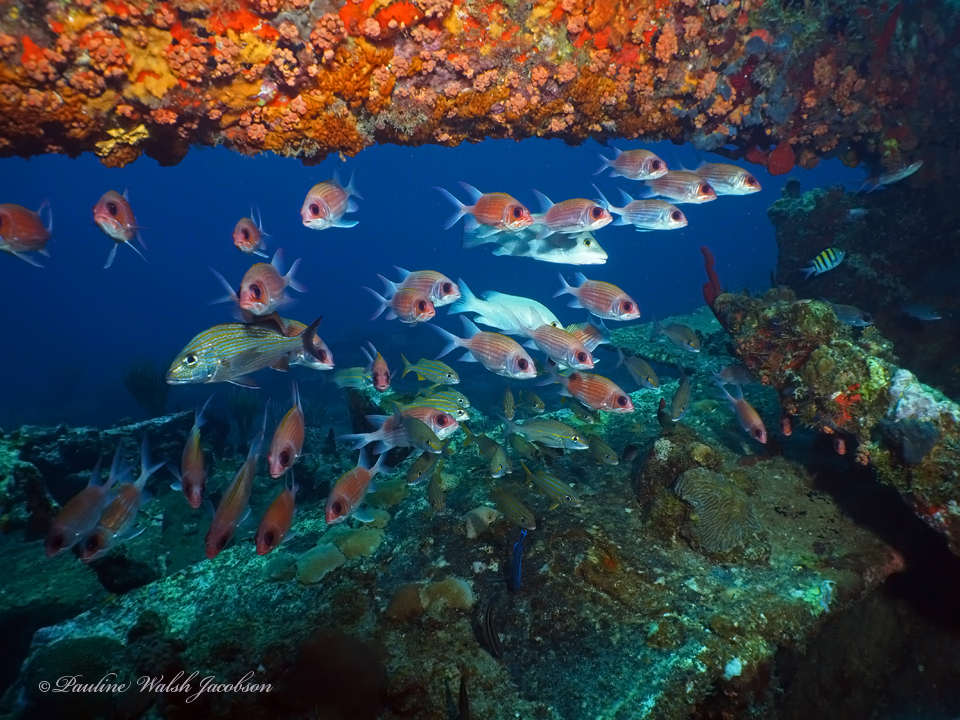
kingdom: Animalia
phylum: Chordata
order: Perciformes
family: Haemulidae
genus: Haemulon
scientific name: Haemulon carbonarium
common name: Caesar grunt
